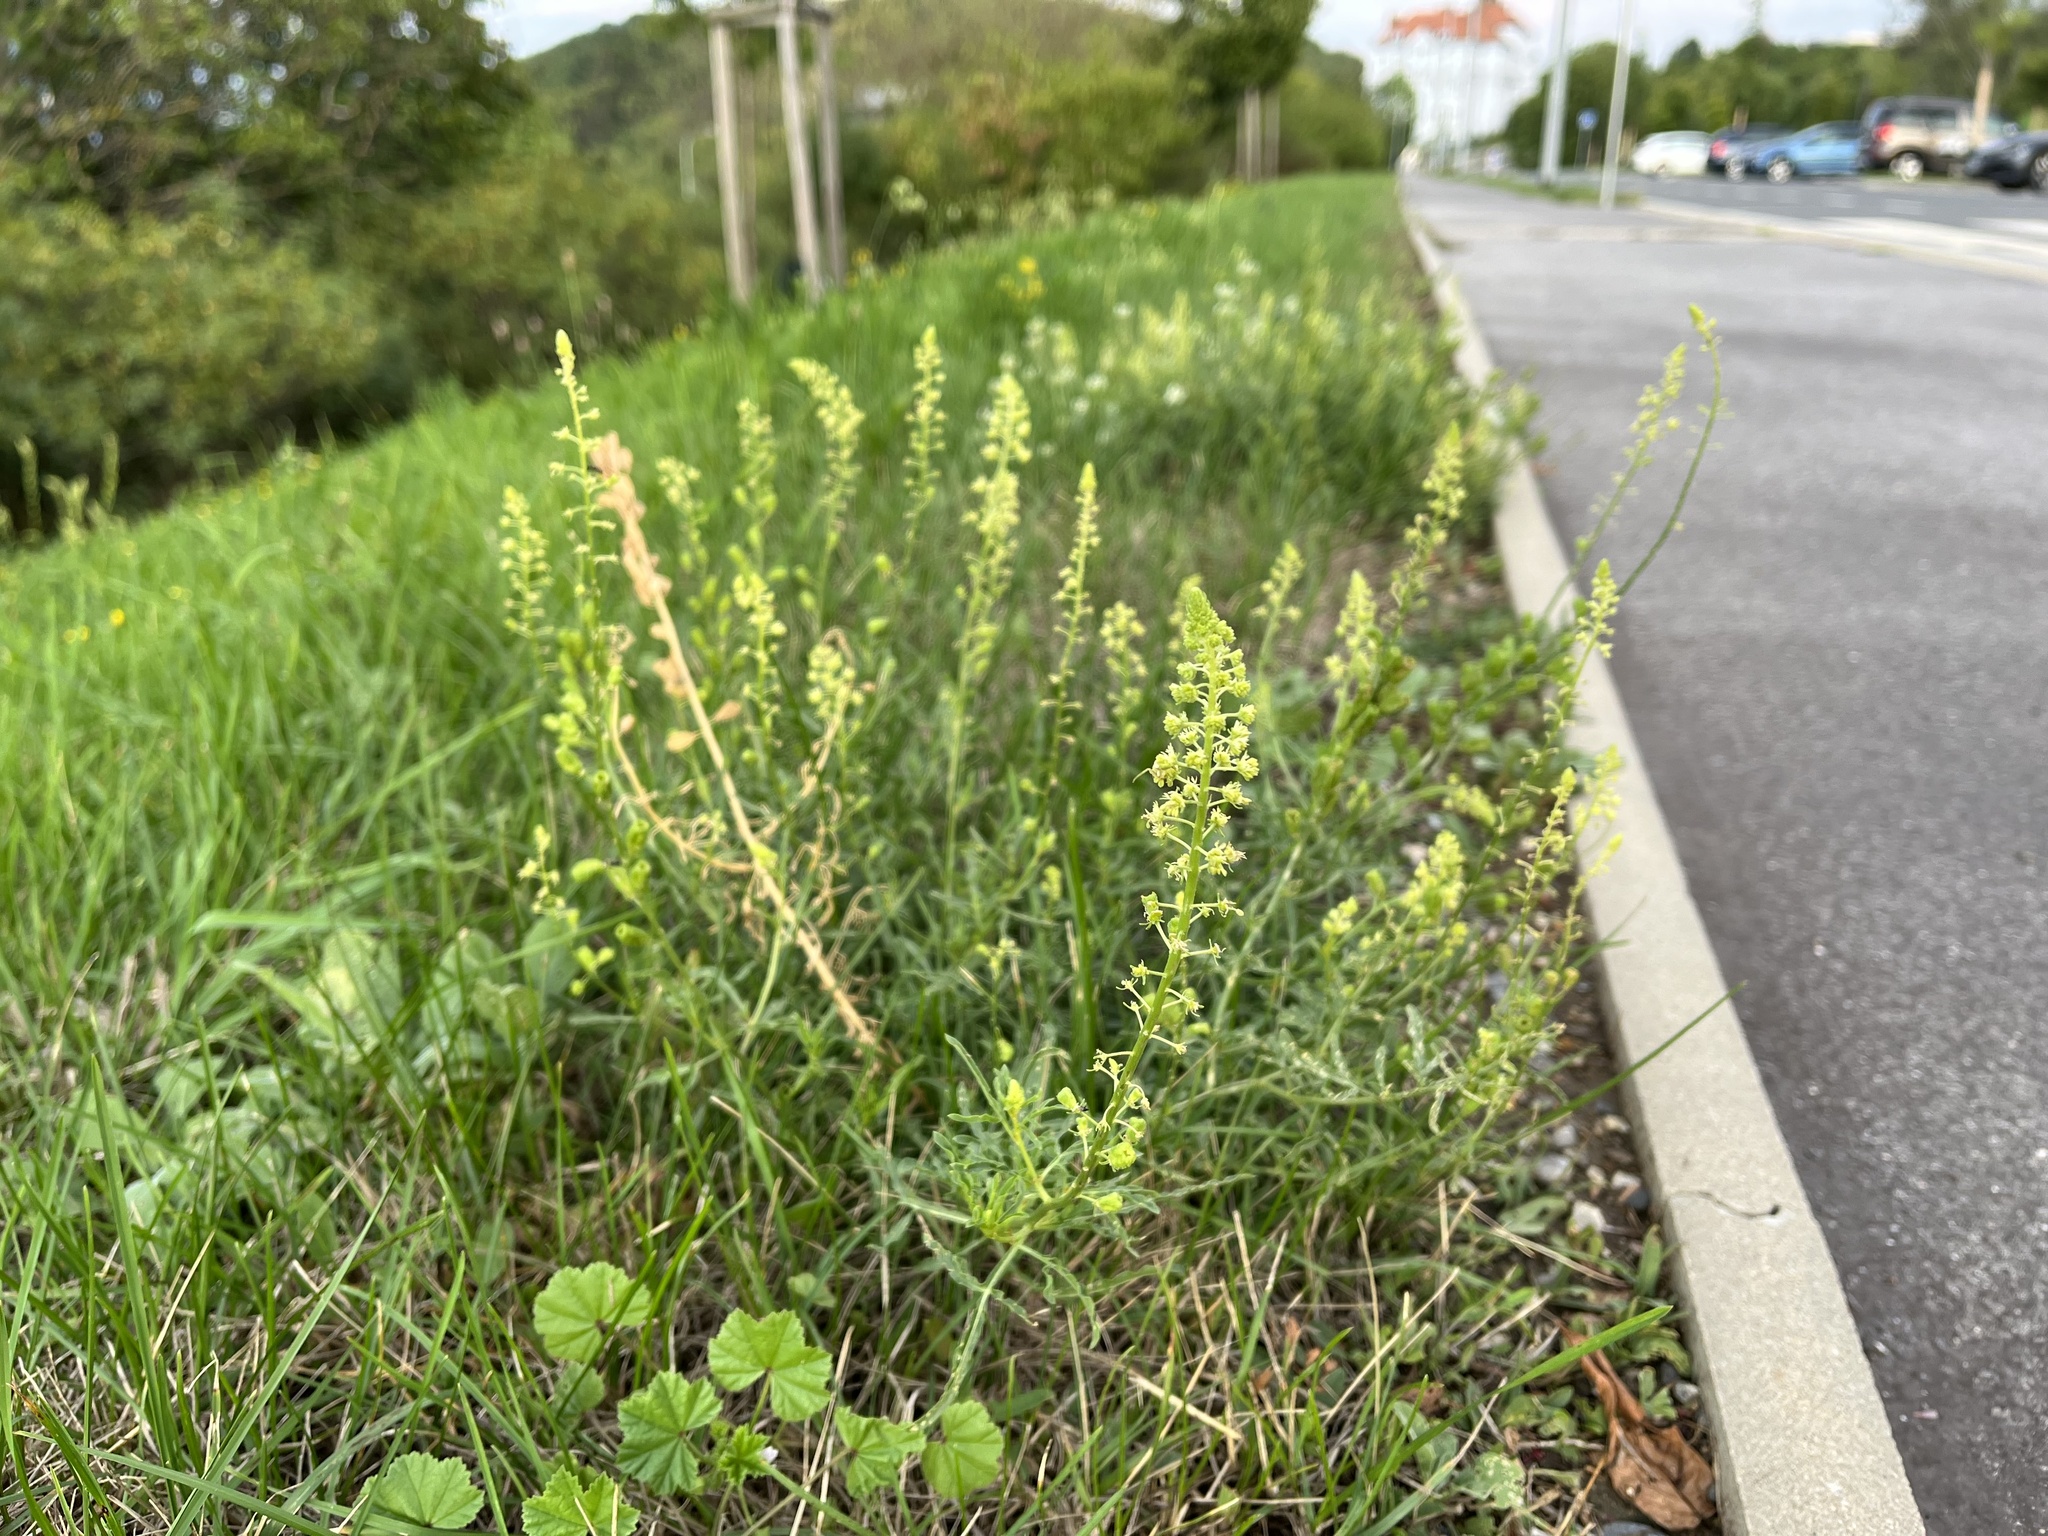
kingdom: Plantae
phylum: Tracheophyta
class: Magnoliopsida
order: Brassicales
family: Resedaceae
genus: Reseda
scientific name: Reseda lutea
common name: Wild mignonette
